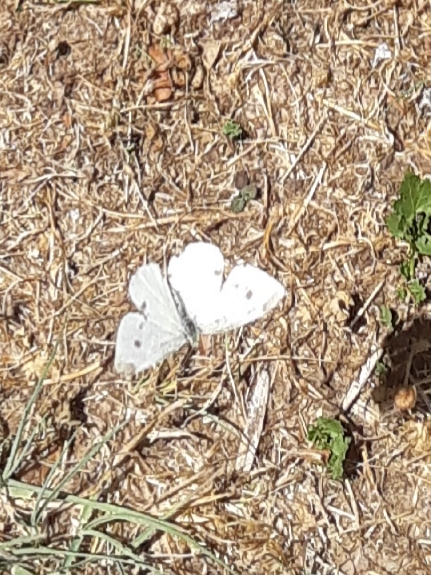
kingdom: Animalia
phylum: Arthropoda
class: Insecta
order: Lepidoptera
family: Pieridae
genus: Pieris
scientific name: Pieris rapae
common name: Small white
